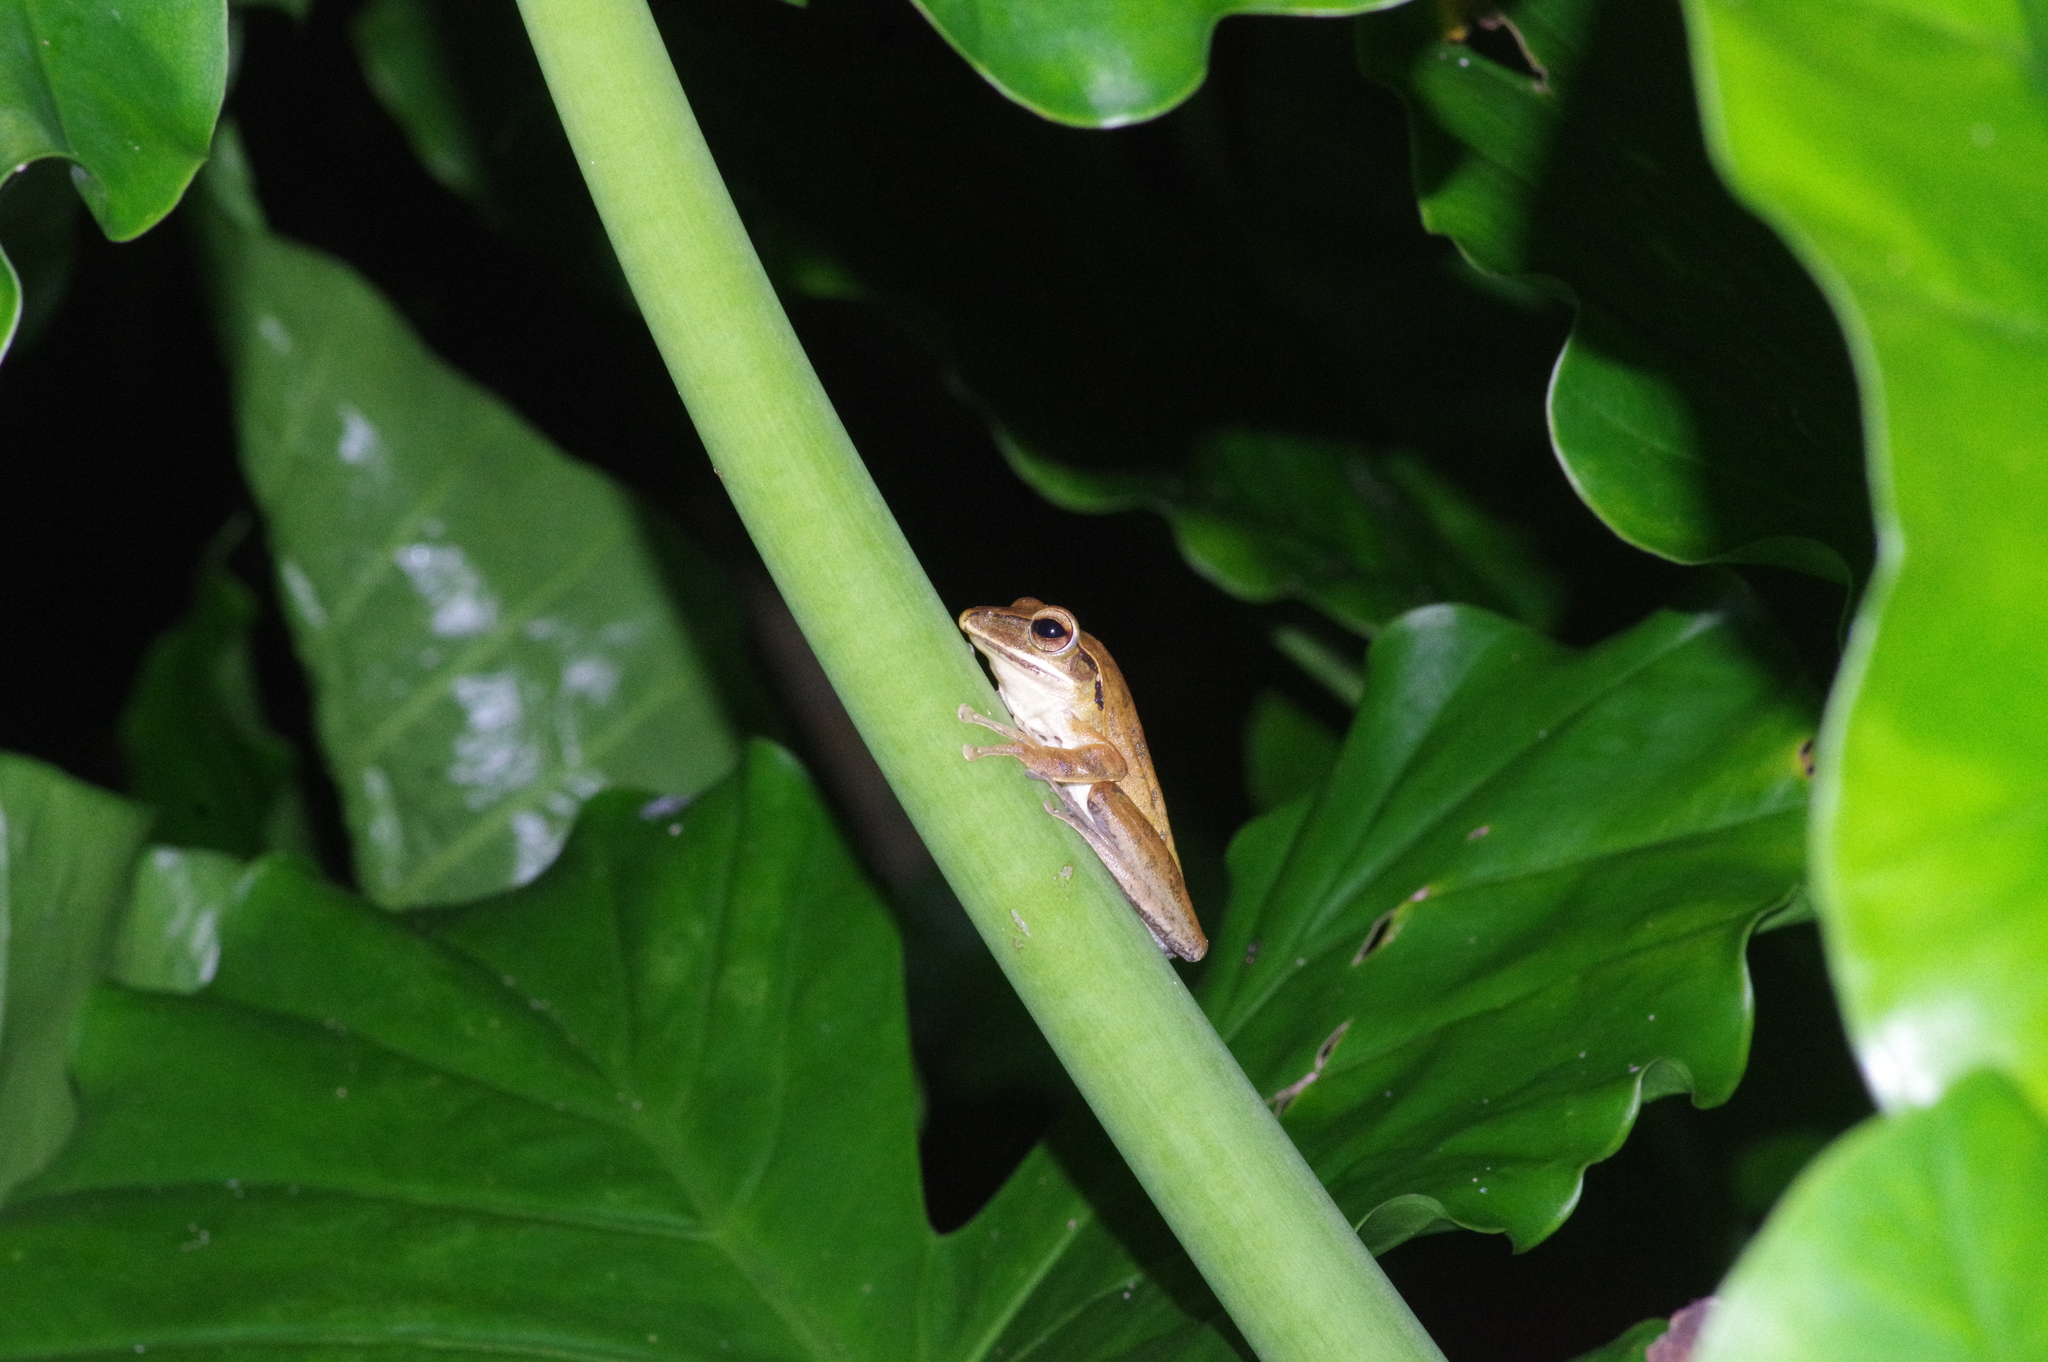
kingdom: Animalia
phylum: Chordata
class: Amphibia
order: Anura
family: Rhacophoridae
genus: Polypedates
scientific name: Polypedates leucomystax
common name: Common tree frog/four-lined tree frog
